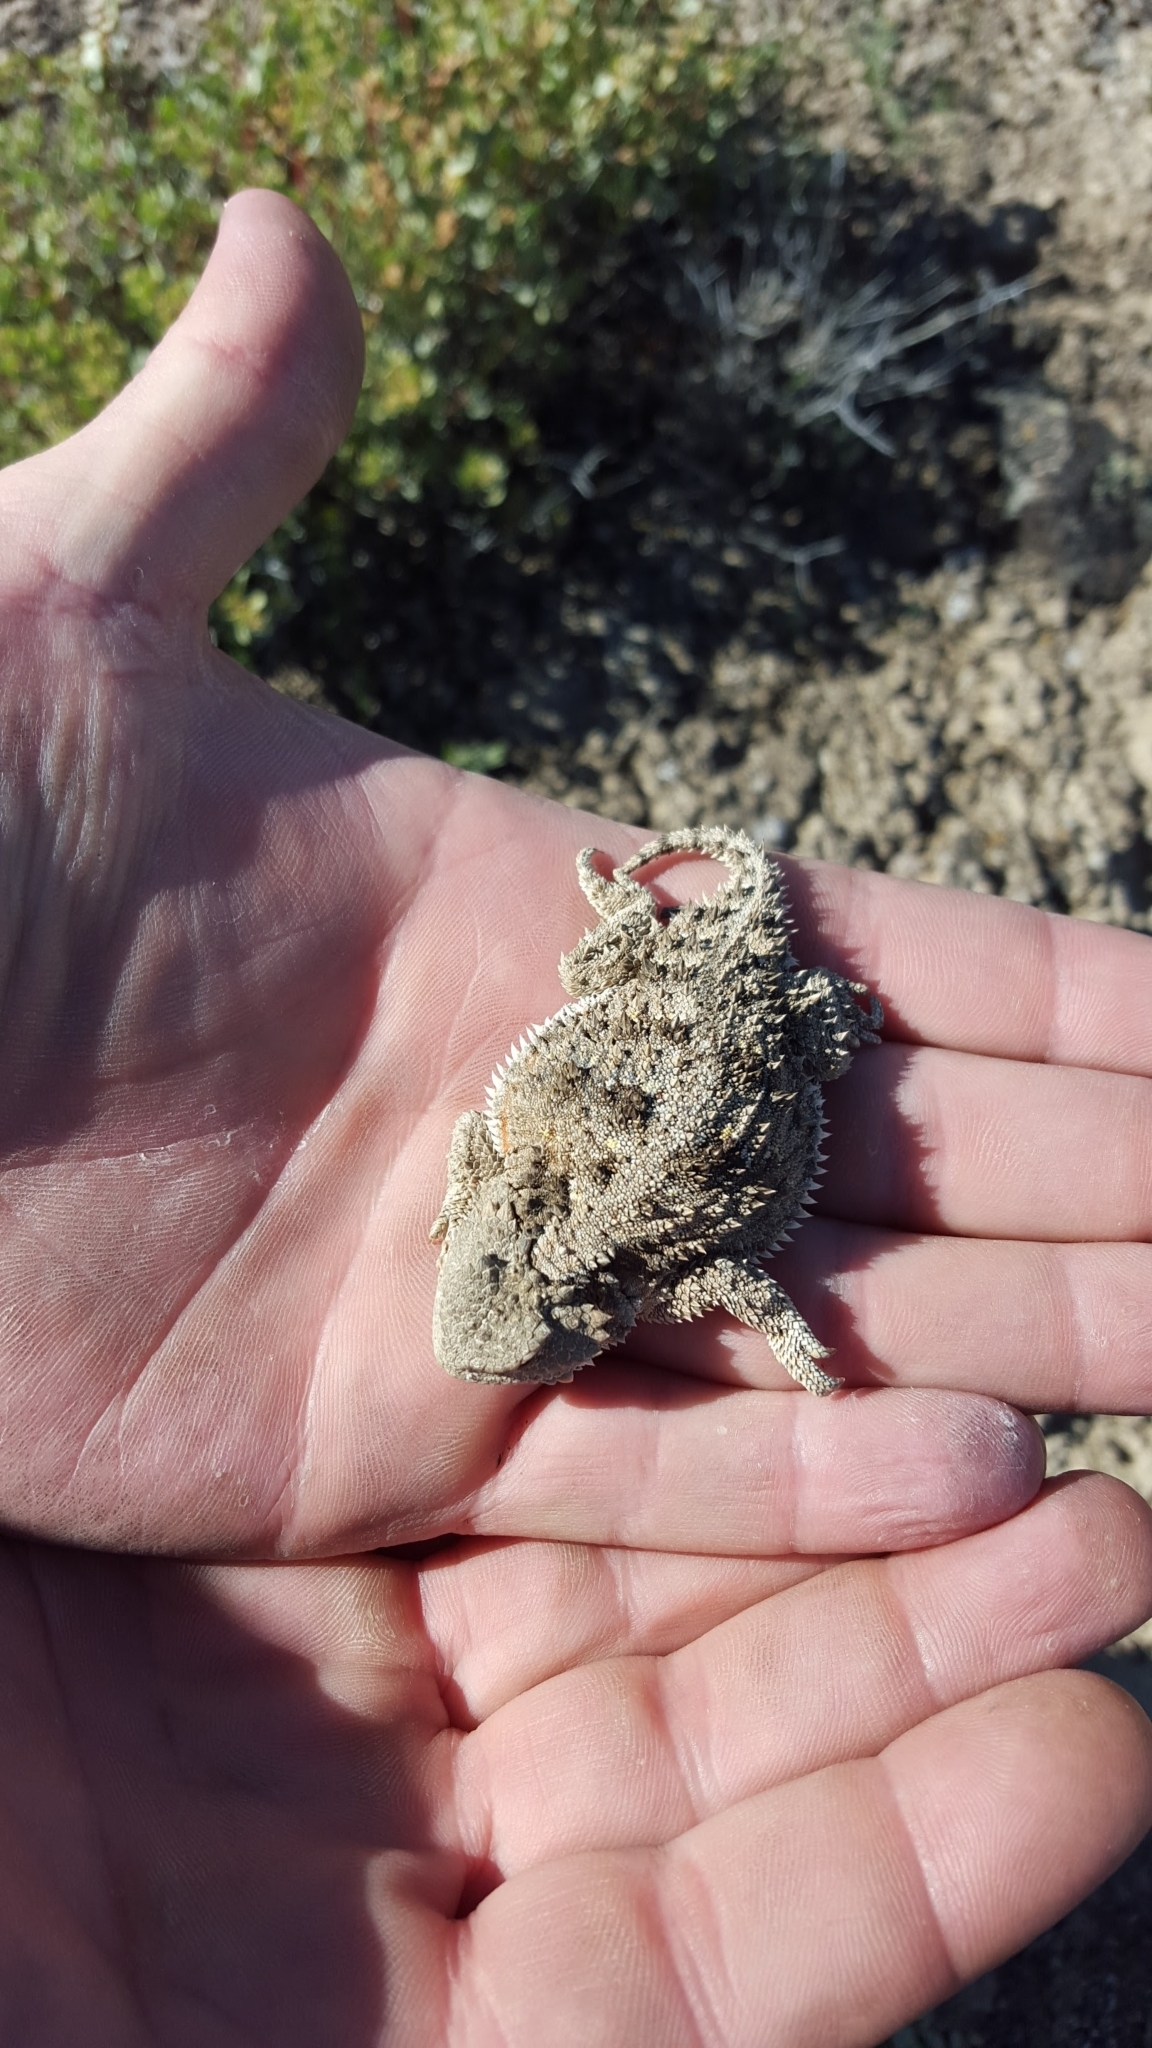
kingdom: Animalia
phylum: Chordata
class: Squamata
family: Phrynosomatidae
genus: Phrynosoma
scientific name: Phrynosoma hernandesi
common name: Greater short-horned lizard
